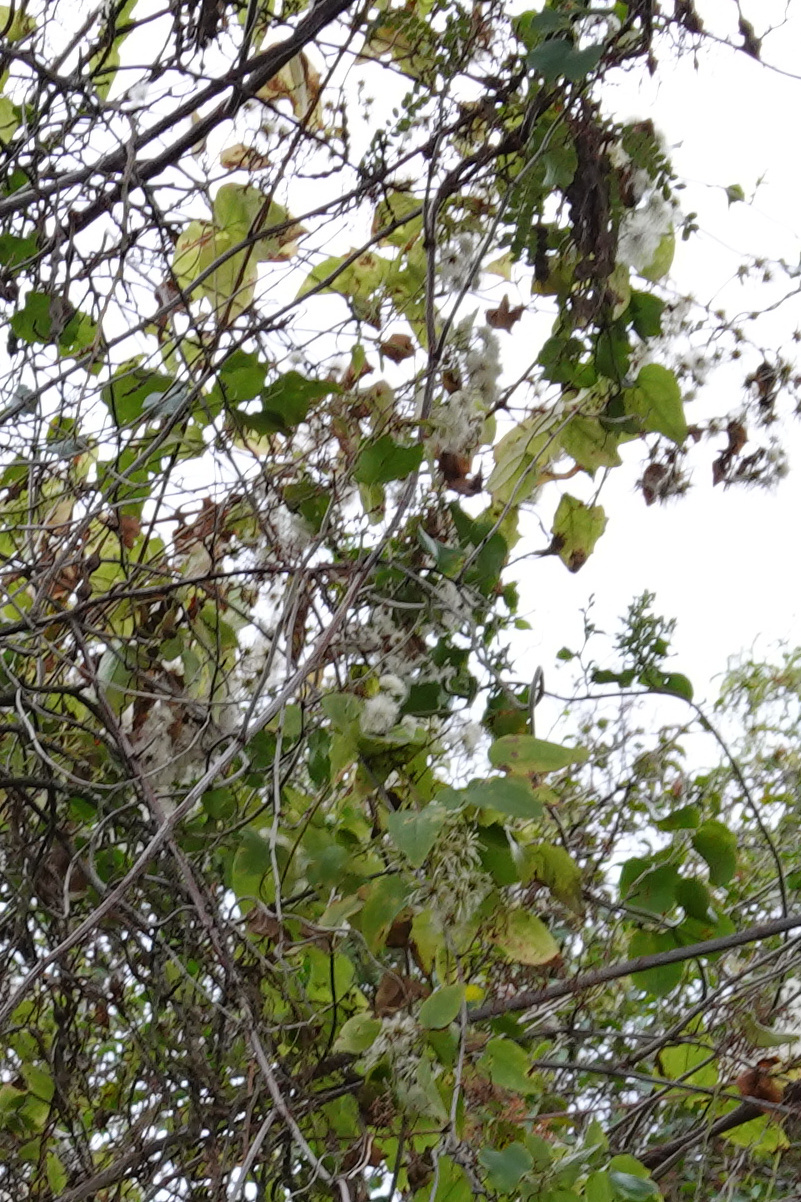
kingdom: Plantae
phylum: Tracheophyta
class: Magnoliopsida
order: Ranunculales
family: Ranunculaceae
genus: Clematis
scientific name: Clematis vitalba
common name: Evergreen clematis
